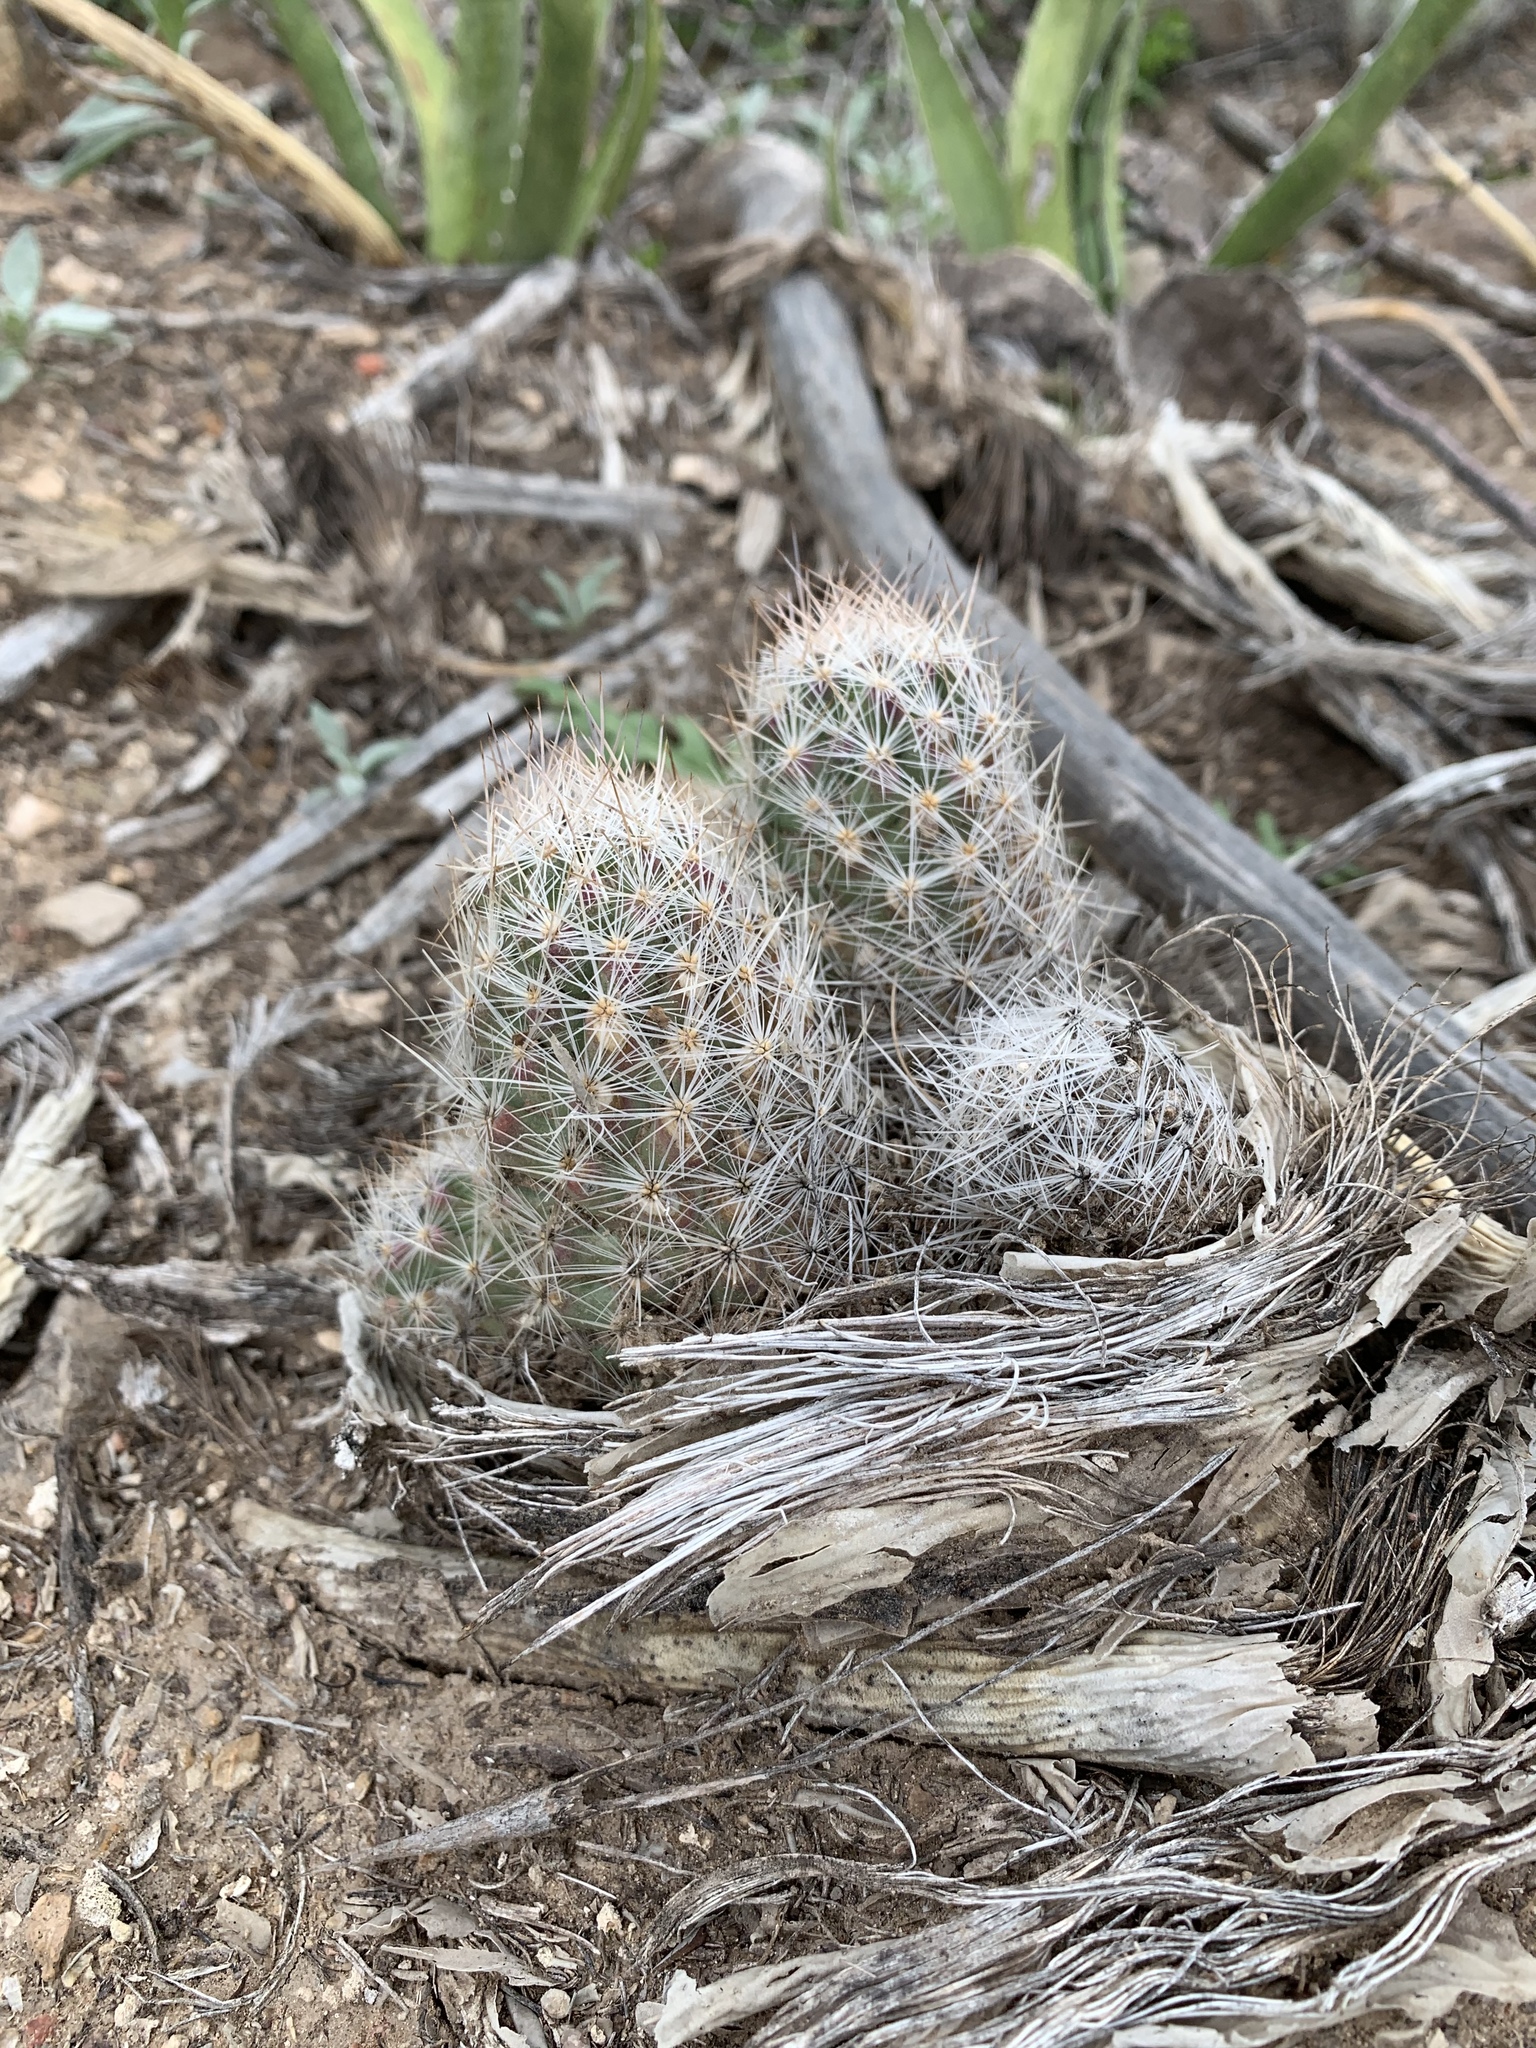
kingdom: Plantae
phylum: Tracheophyta
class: Magnoliopsida
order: Caryophyllales
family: Cactaceae
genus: Pelecyphora
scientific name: Pelecyphora tuberculosa
